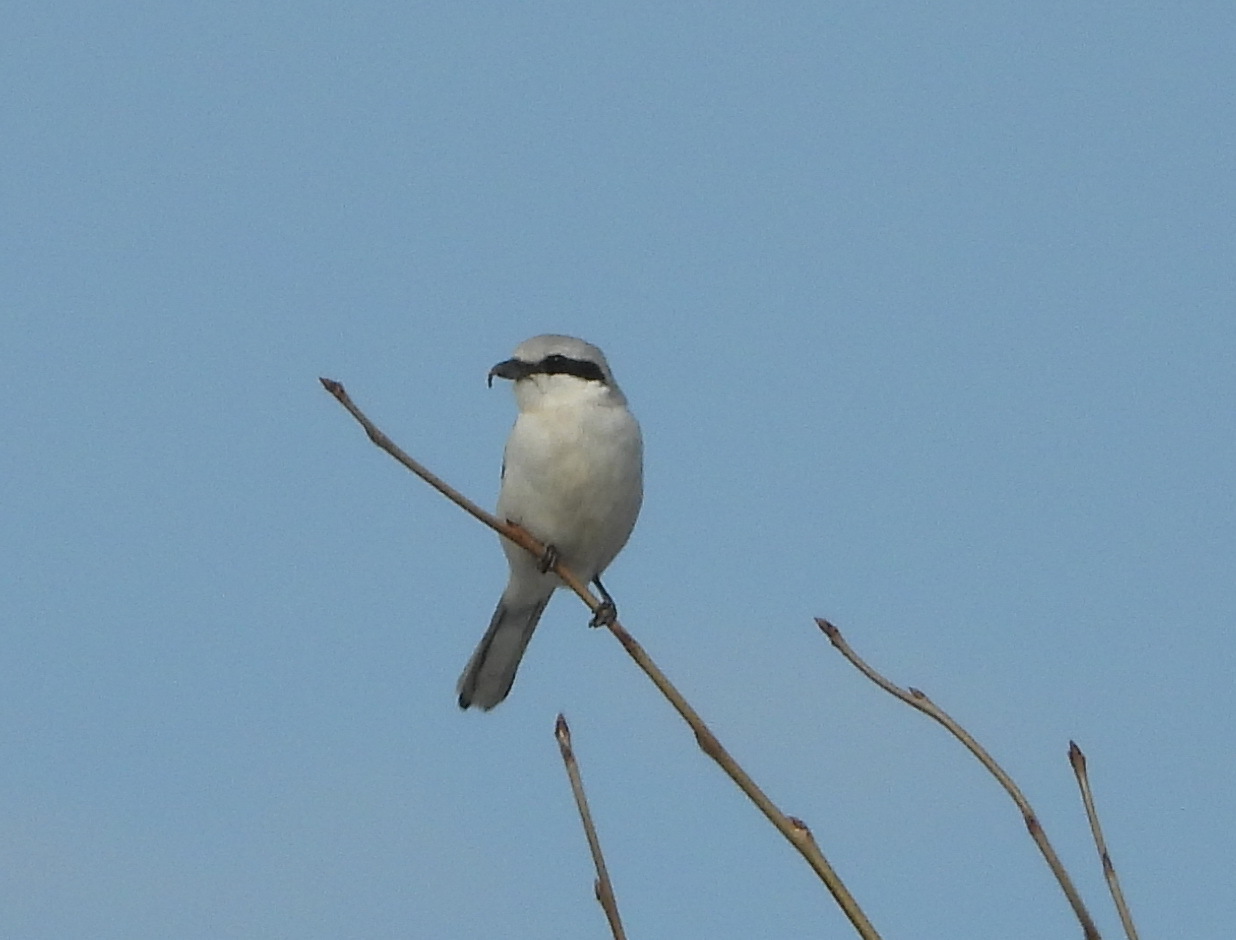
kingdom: Animalia
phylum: Chordata
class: Aves
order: Passeriformes
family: Laniidae
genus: Lanius
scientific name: Lanius excubitor
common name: Great grey shrike
